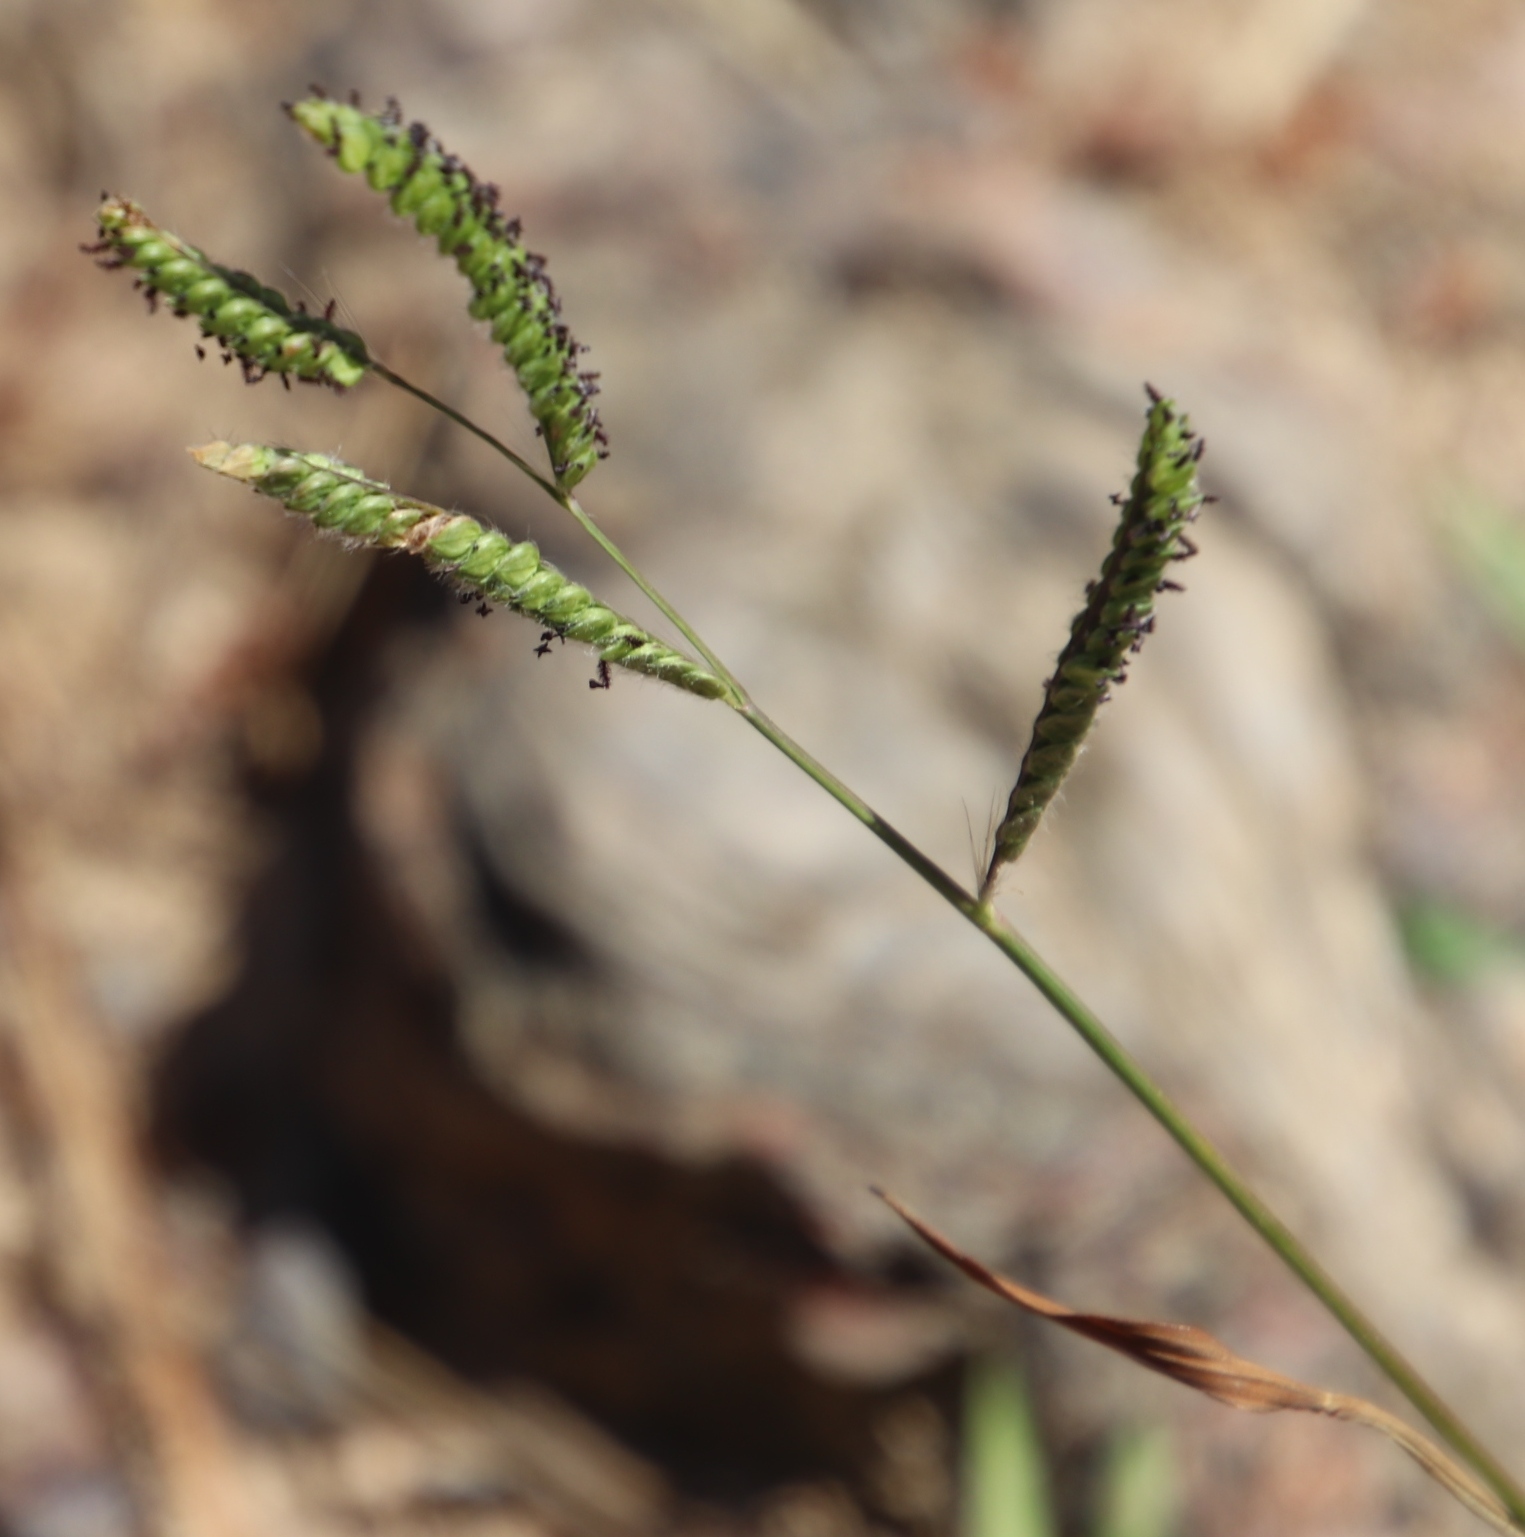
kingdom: Plantae
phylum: Tracheophyta
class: Liliopsida
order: Poales
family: Poaceae
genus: Paspalum
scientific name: Paspalum dilatatum
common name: Dallisgrass
